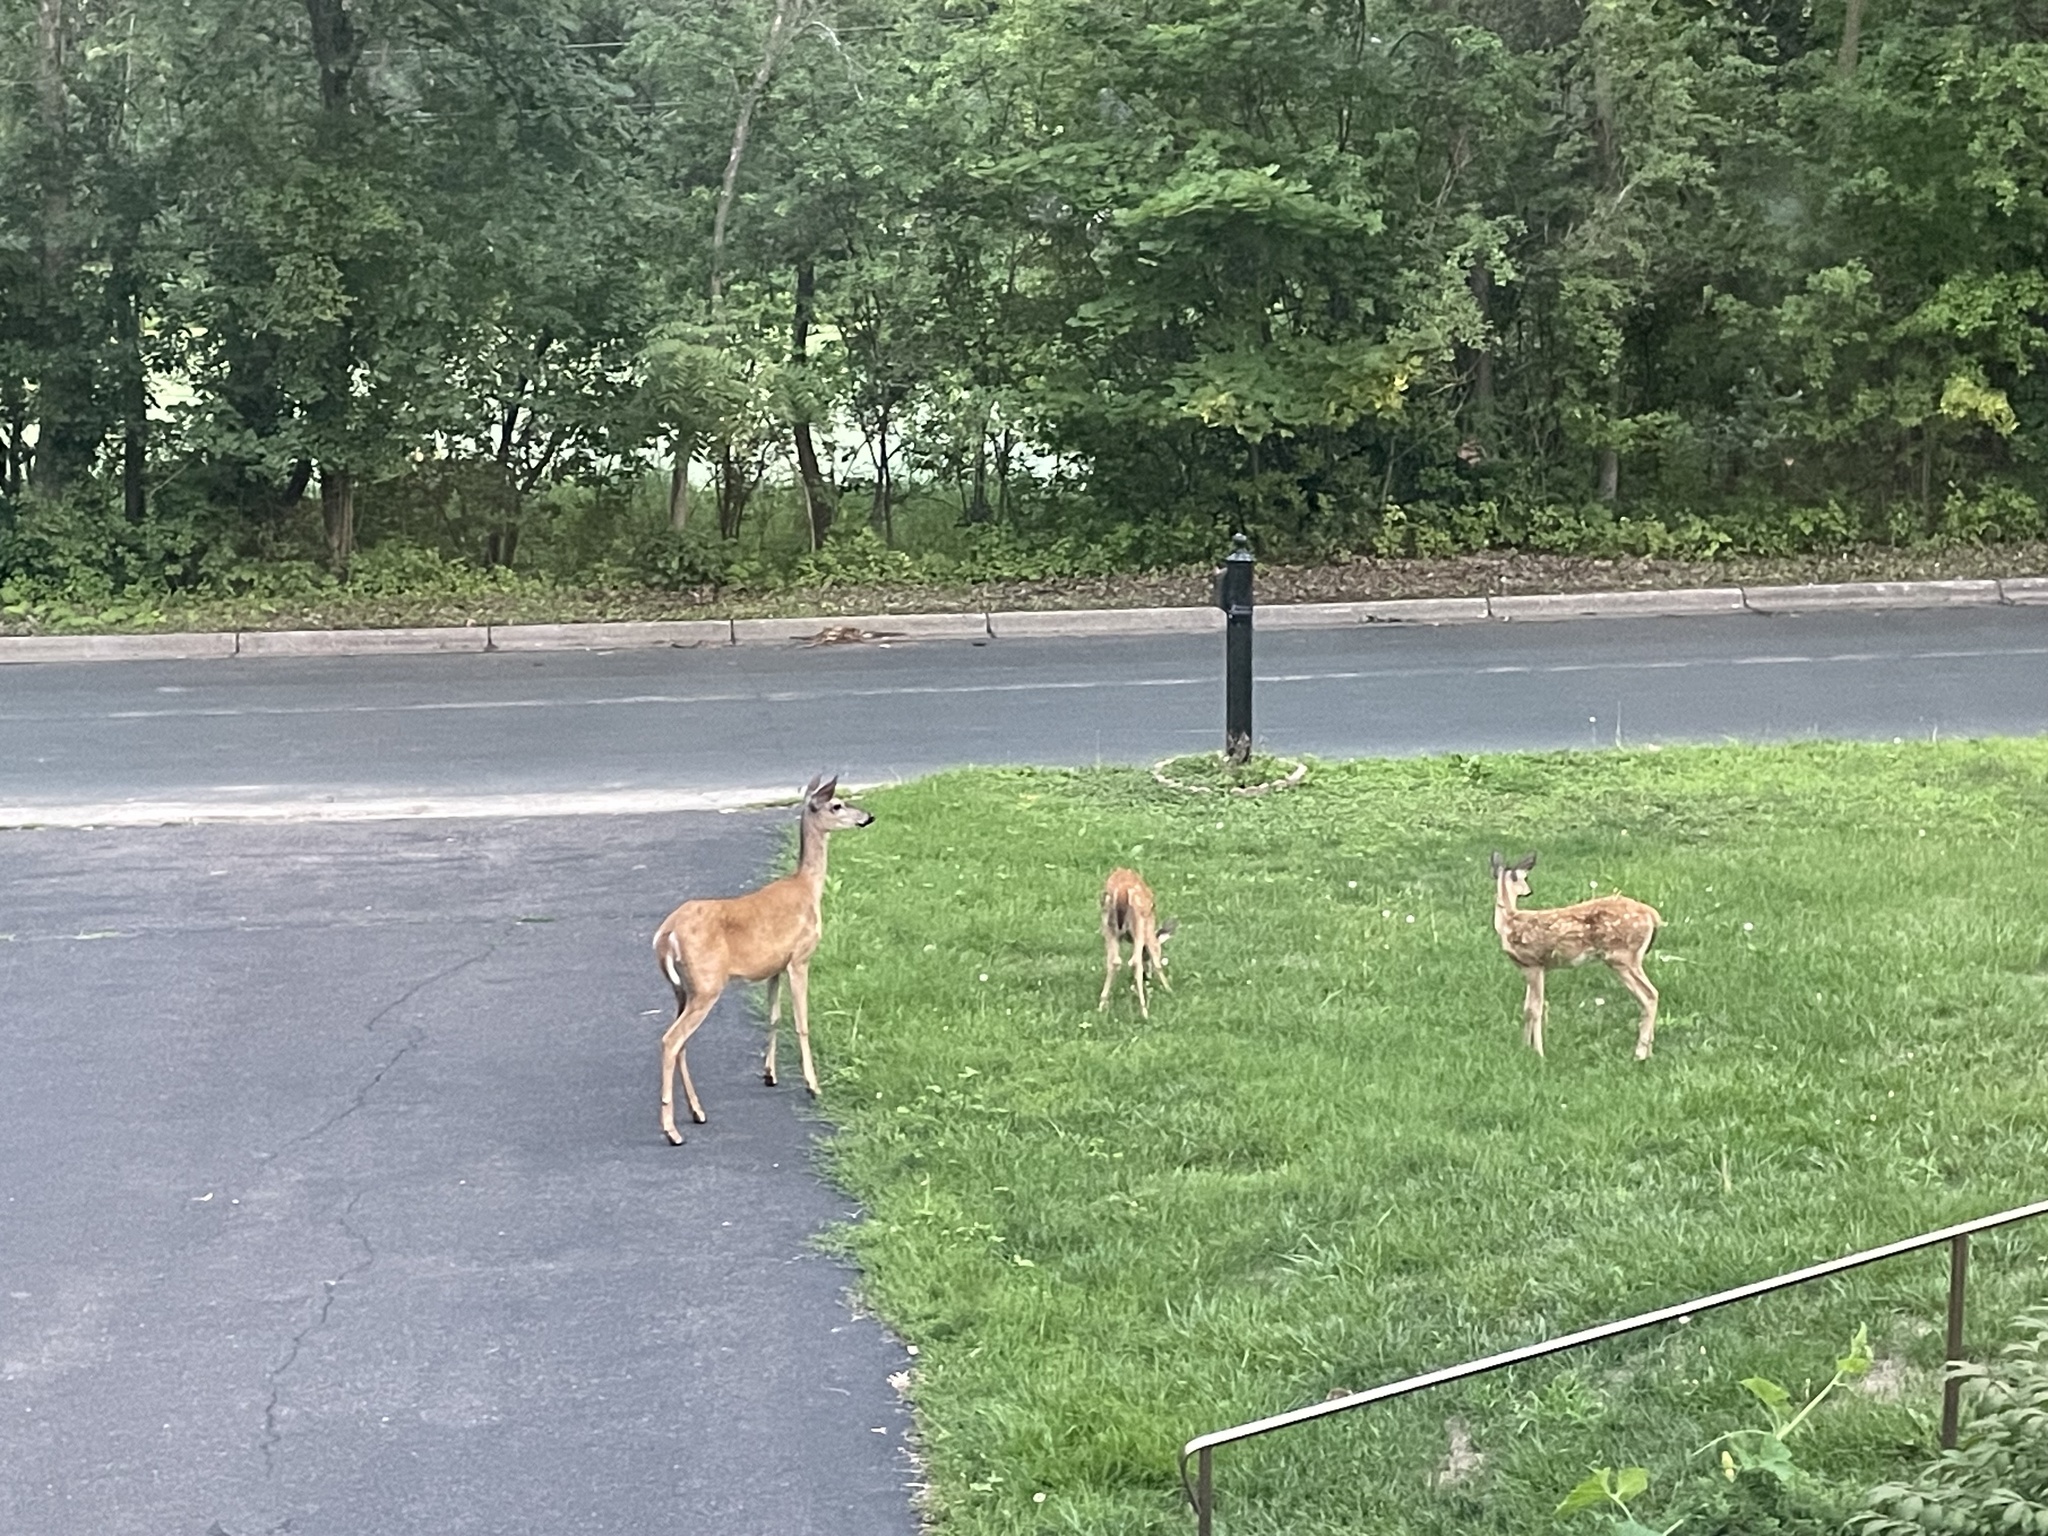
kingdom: Animalia
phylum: Chordata
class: Mammalia
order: Artiodactyla
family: Cervidae
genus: Odocoileus
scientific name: Odocoileus virginianus
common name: White-tailed deer
